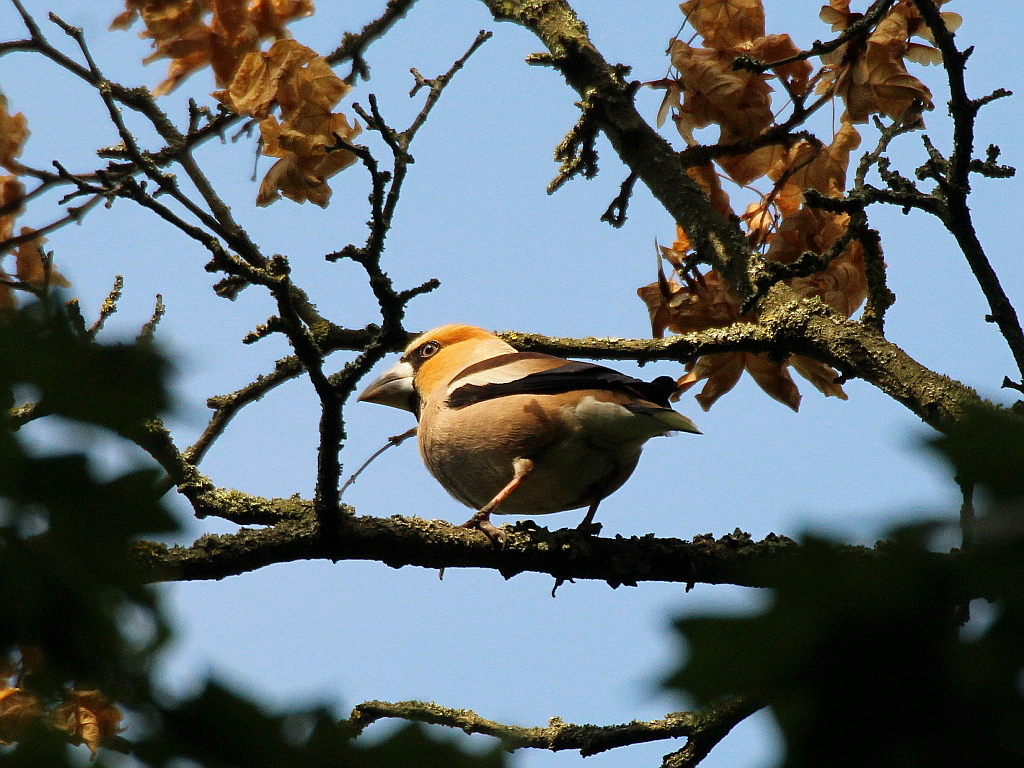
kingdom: Animalia
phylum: Chordata
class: Aves
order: Passeriformes
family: Fringillidae
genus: Coccothraustes
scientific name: Coccothraustes coccothraustes
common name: Hawfinch
